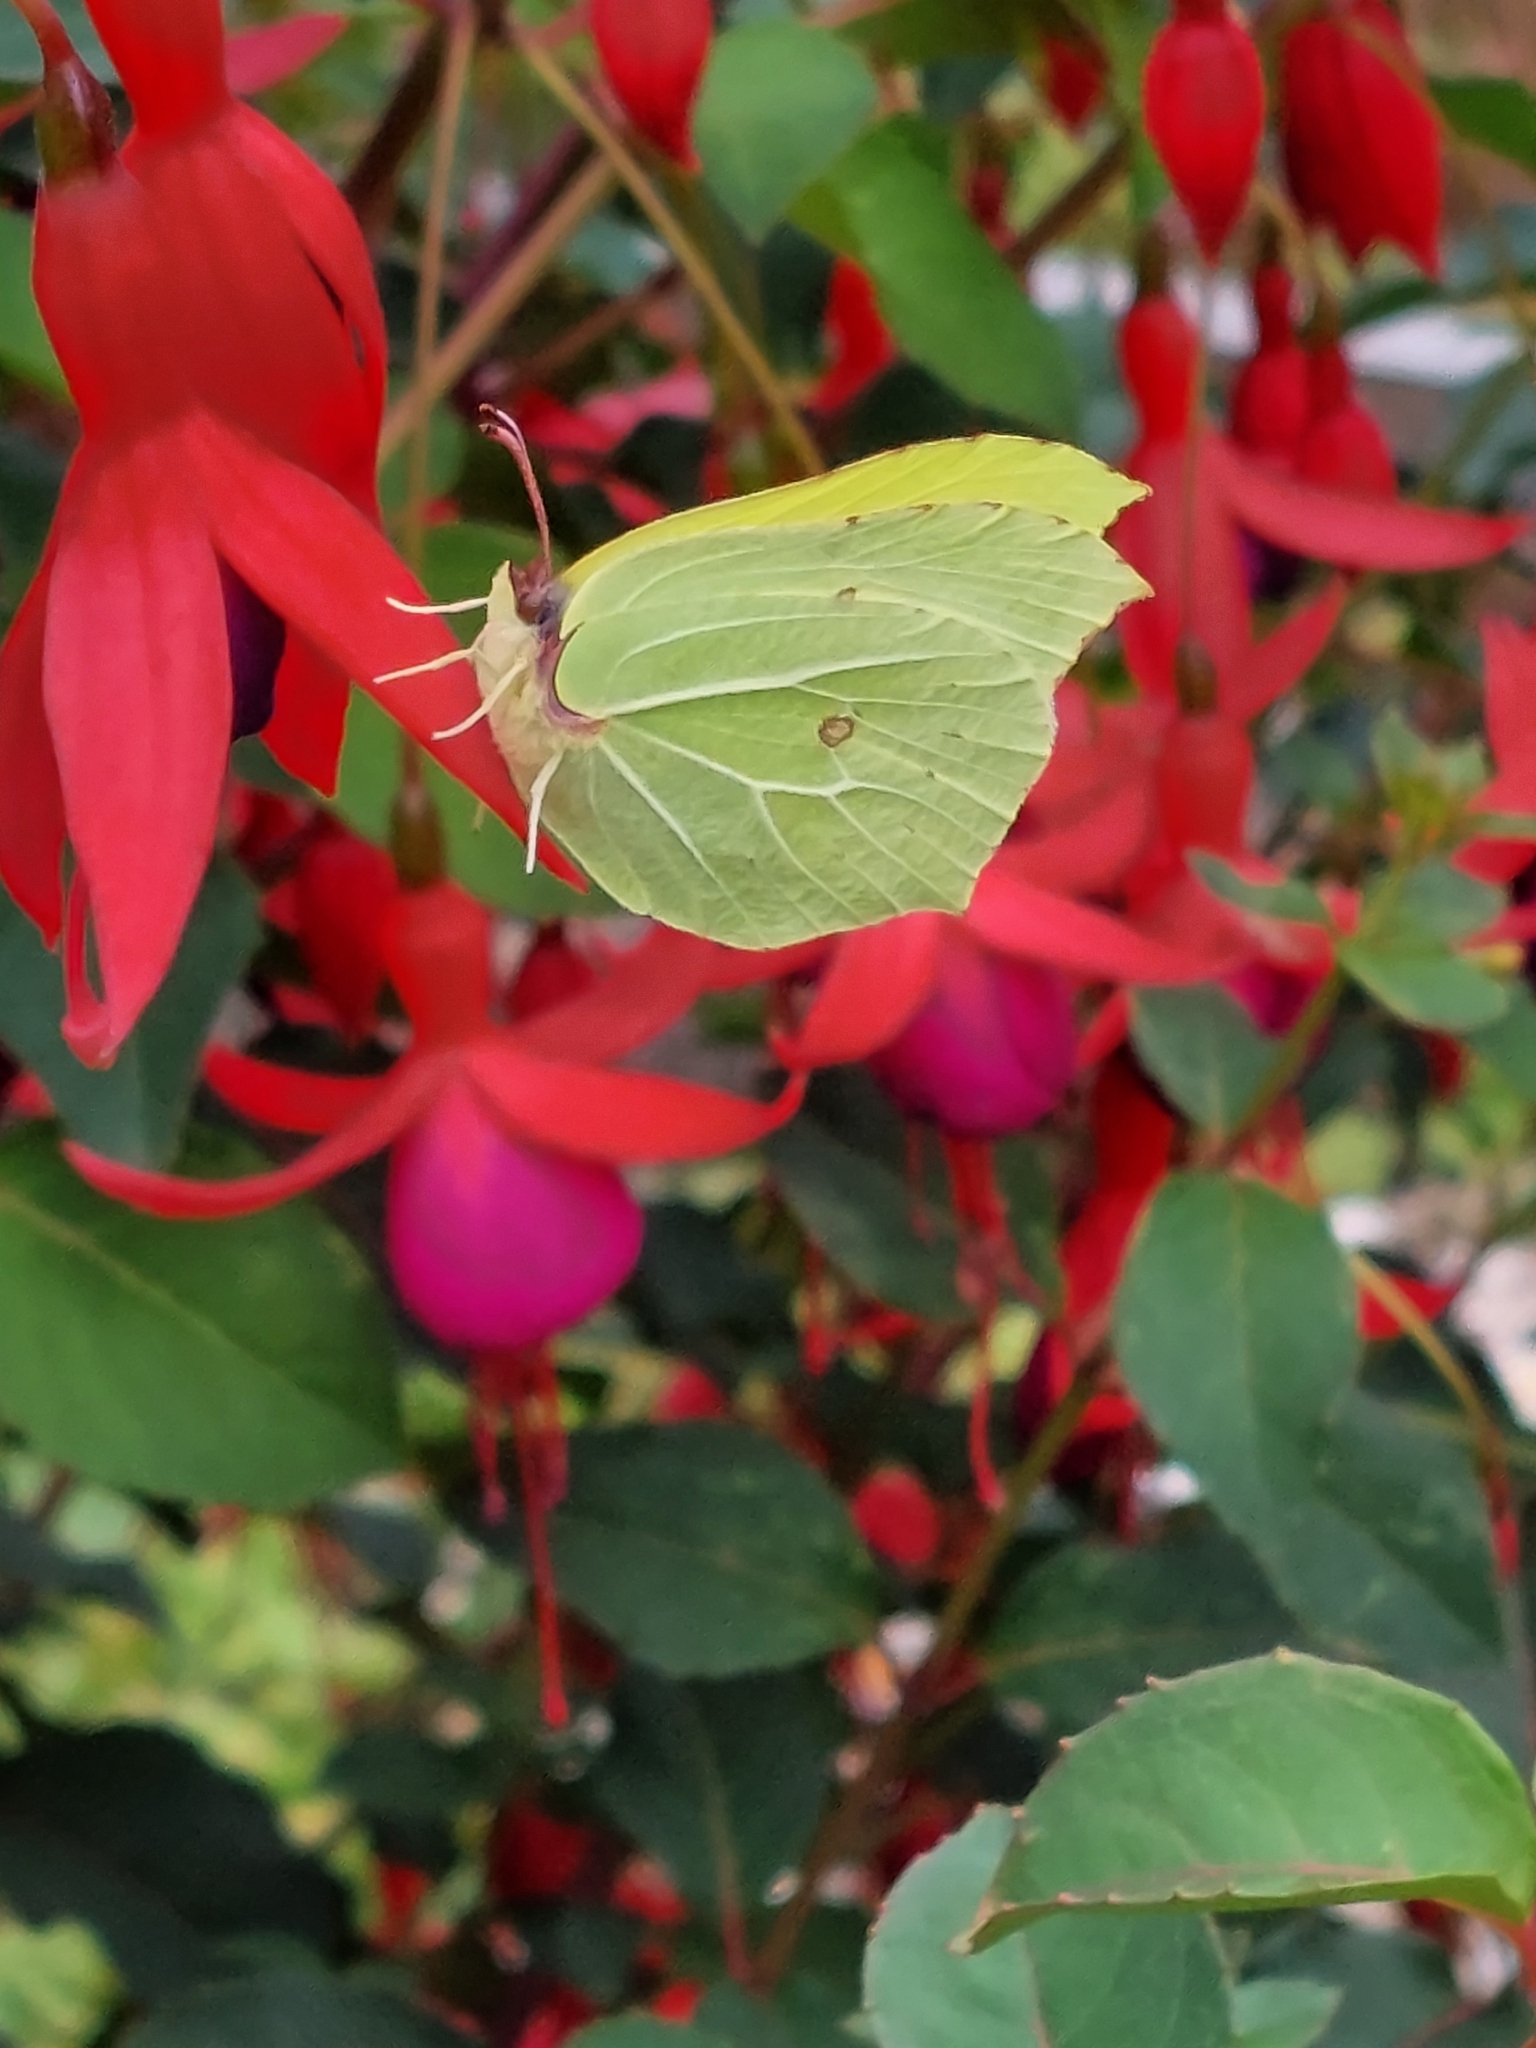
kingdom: Animalia
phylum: Arthropoda
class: Insecta
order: Lepidoptera
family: Pieridae
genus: Gonepteryx
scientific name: Gonepteryx rhamni
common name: Brimstone
